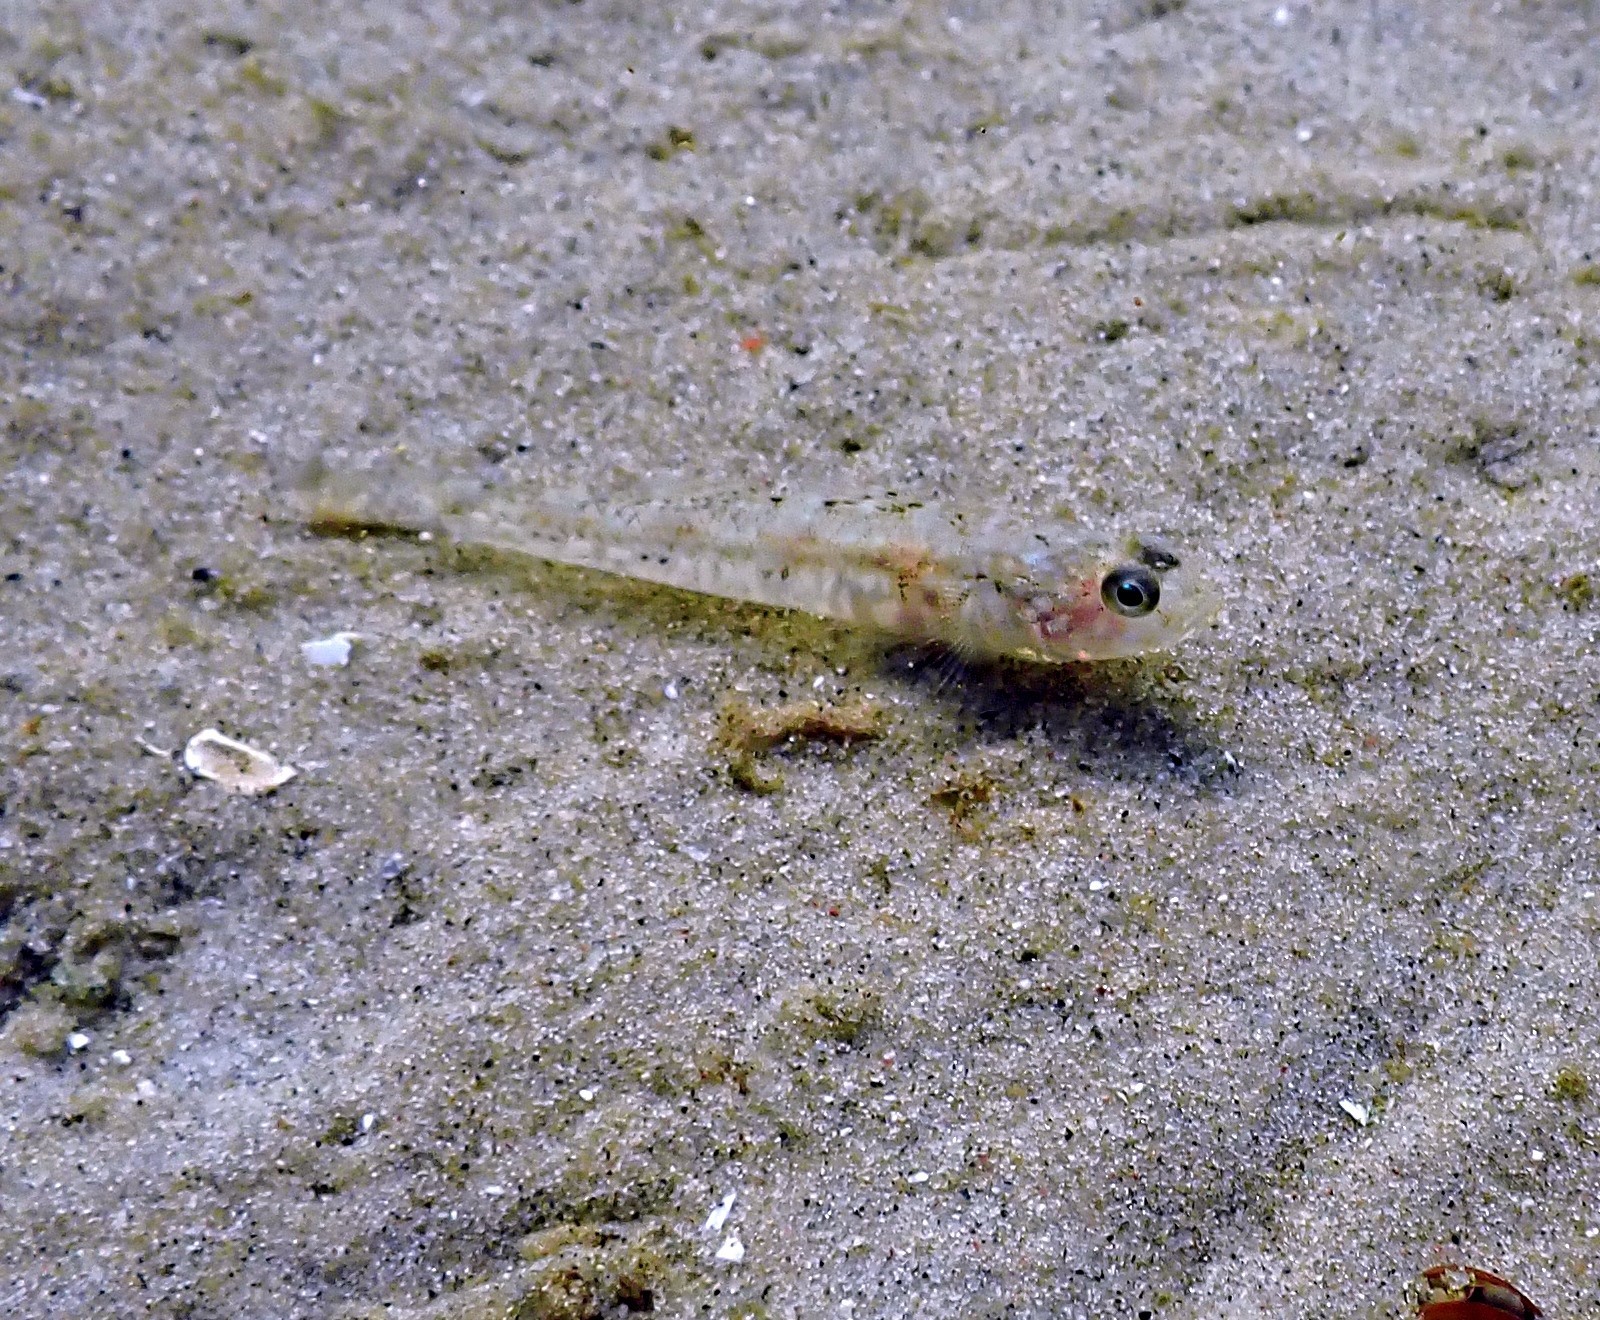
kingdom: Animalia
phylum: Chordata
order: Perciformes
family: Gobiidae
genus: Pomatoschistus
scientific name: Pomatoschistus pictus
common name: Painted goby
